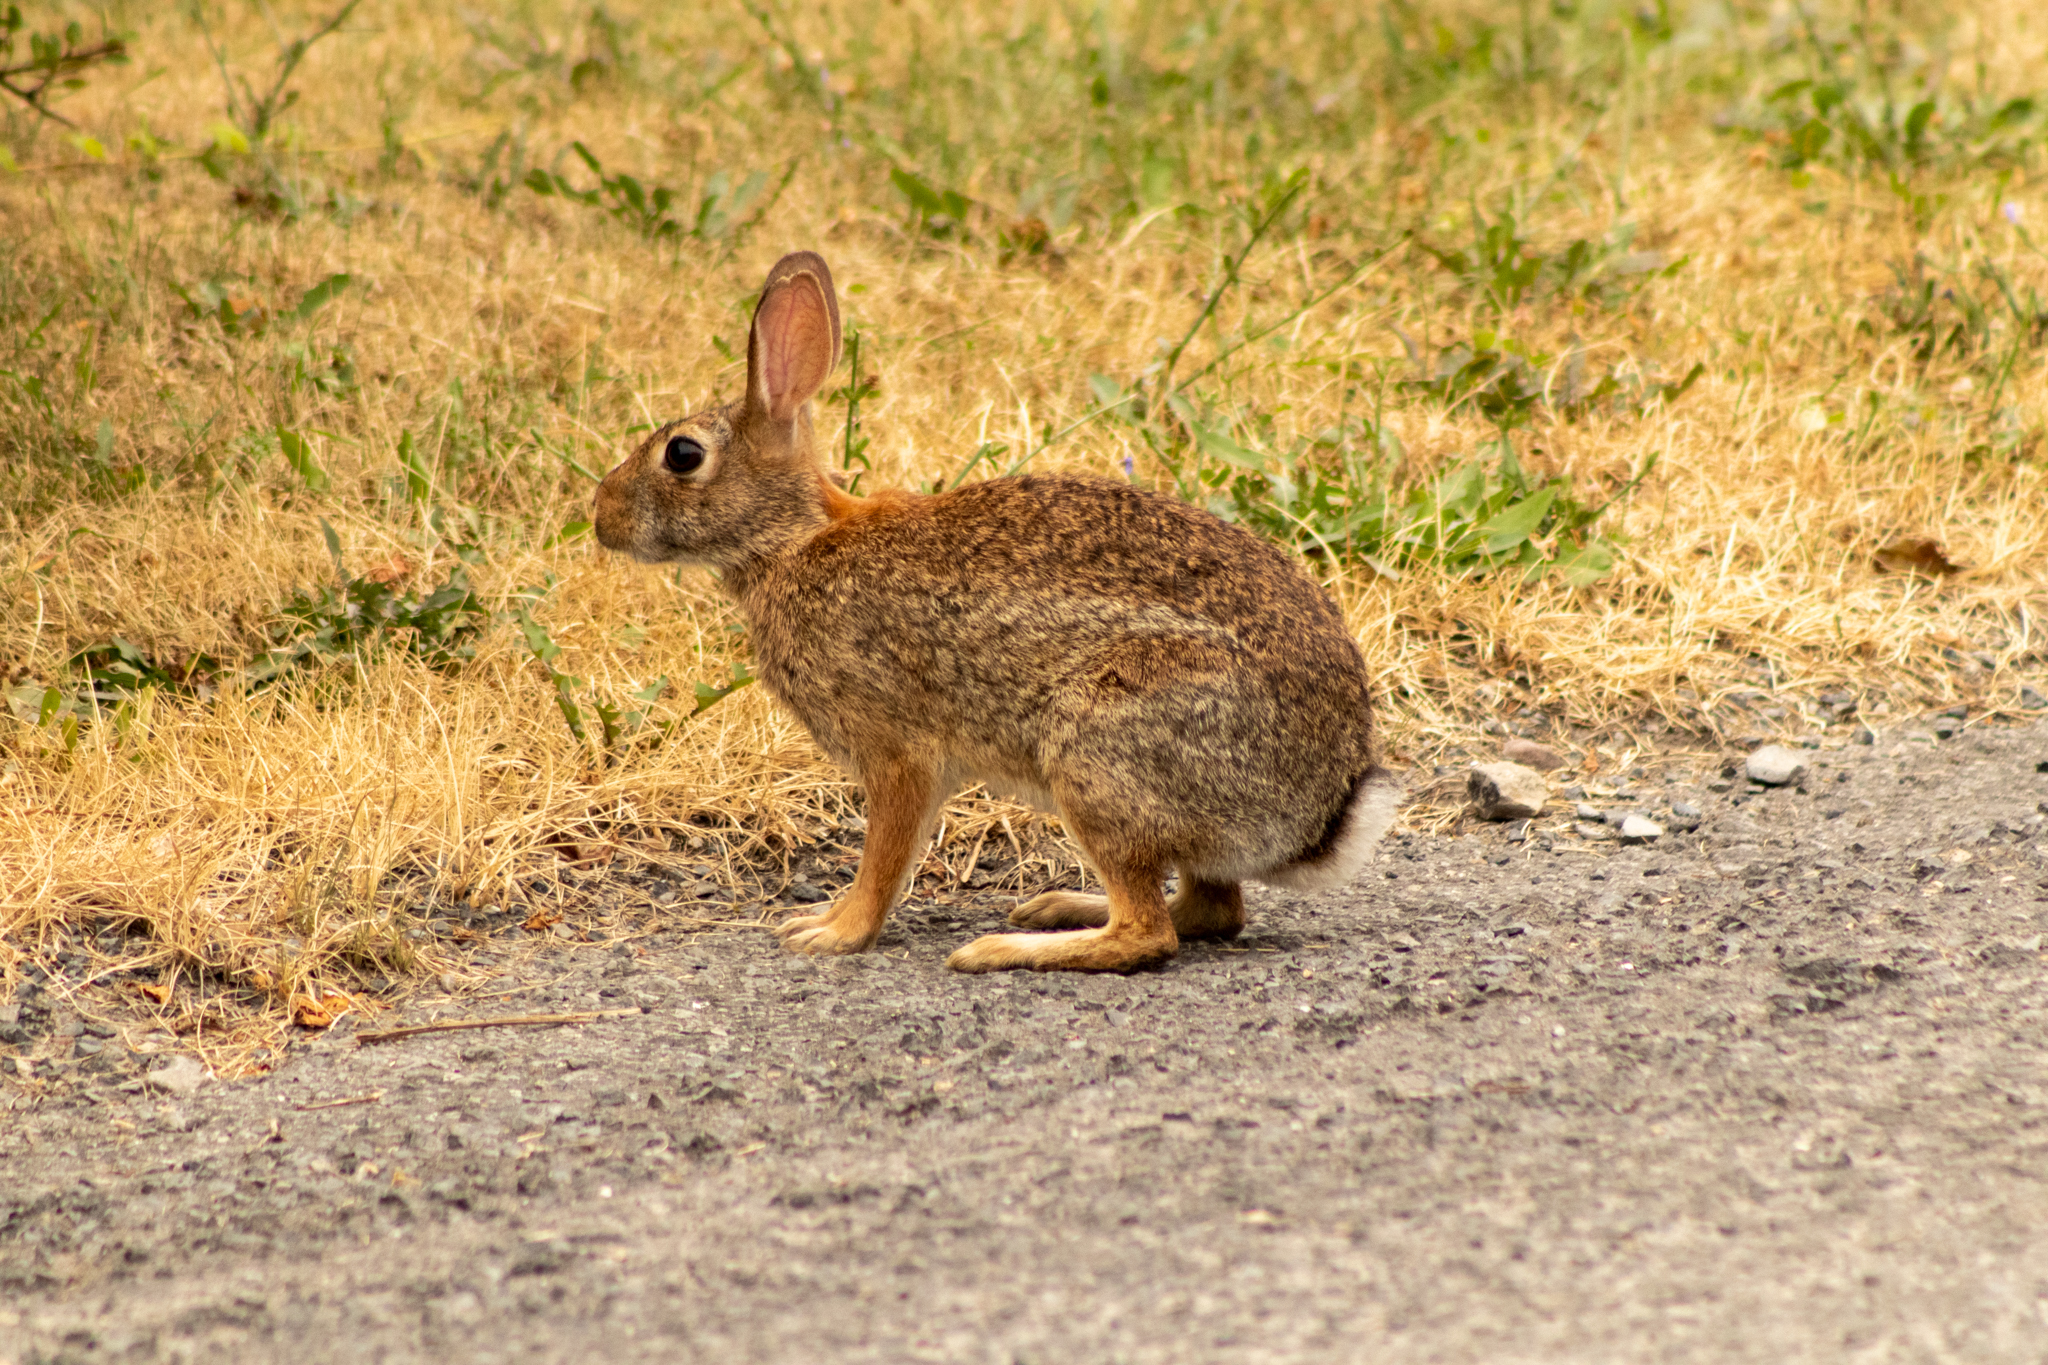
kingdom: Animalia
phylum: Chordata
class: Mammalia
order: Lagomorpha
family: Leporidae
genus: Sylvilagus
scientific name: Sylvilagus floridanus
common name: Eastern cottontail
